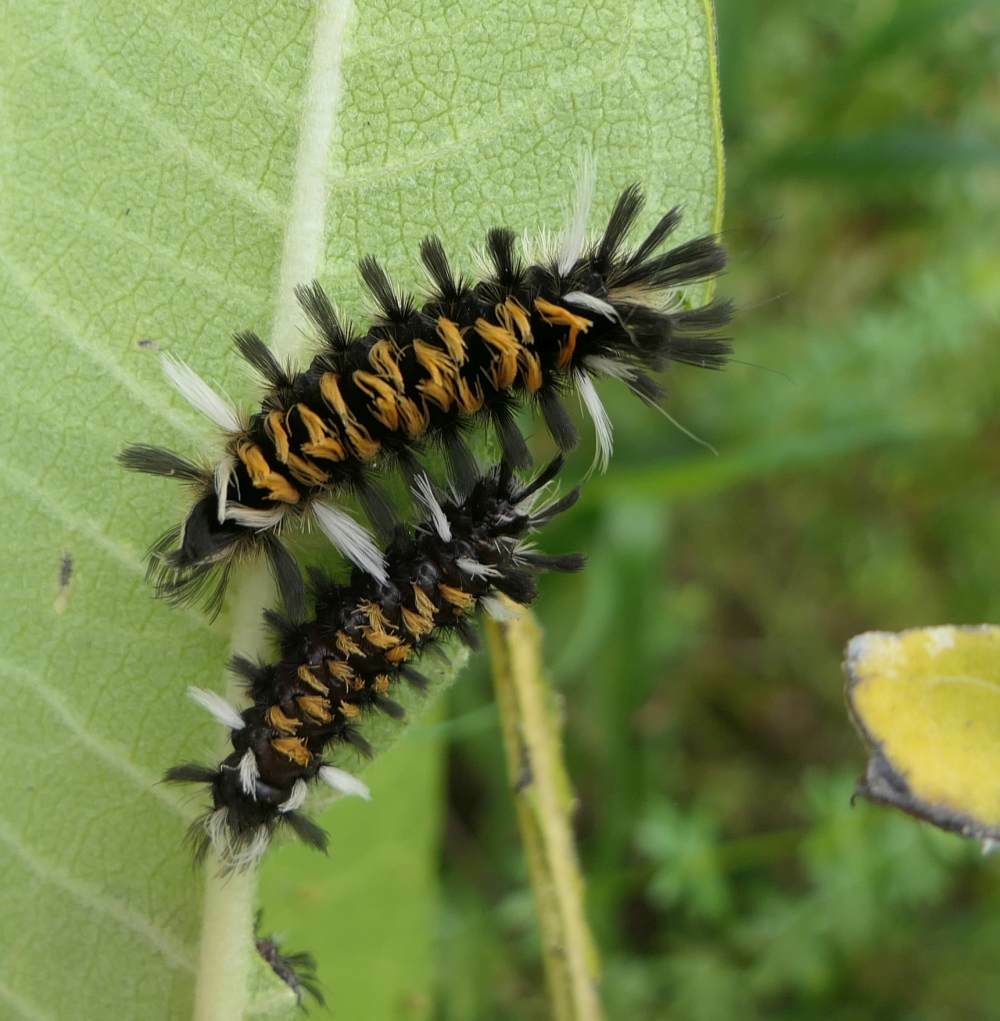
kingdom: Animalia
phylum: Arthropoda
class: Insecta
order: Lepidoptera
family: Erebidae
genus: Euchaetes
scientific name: Euchaetes egle
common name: Milkweed tussock moth
